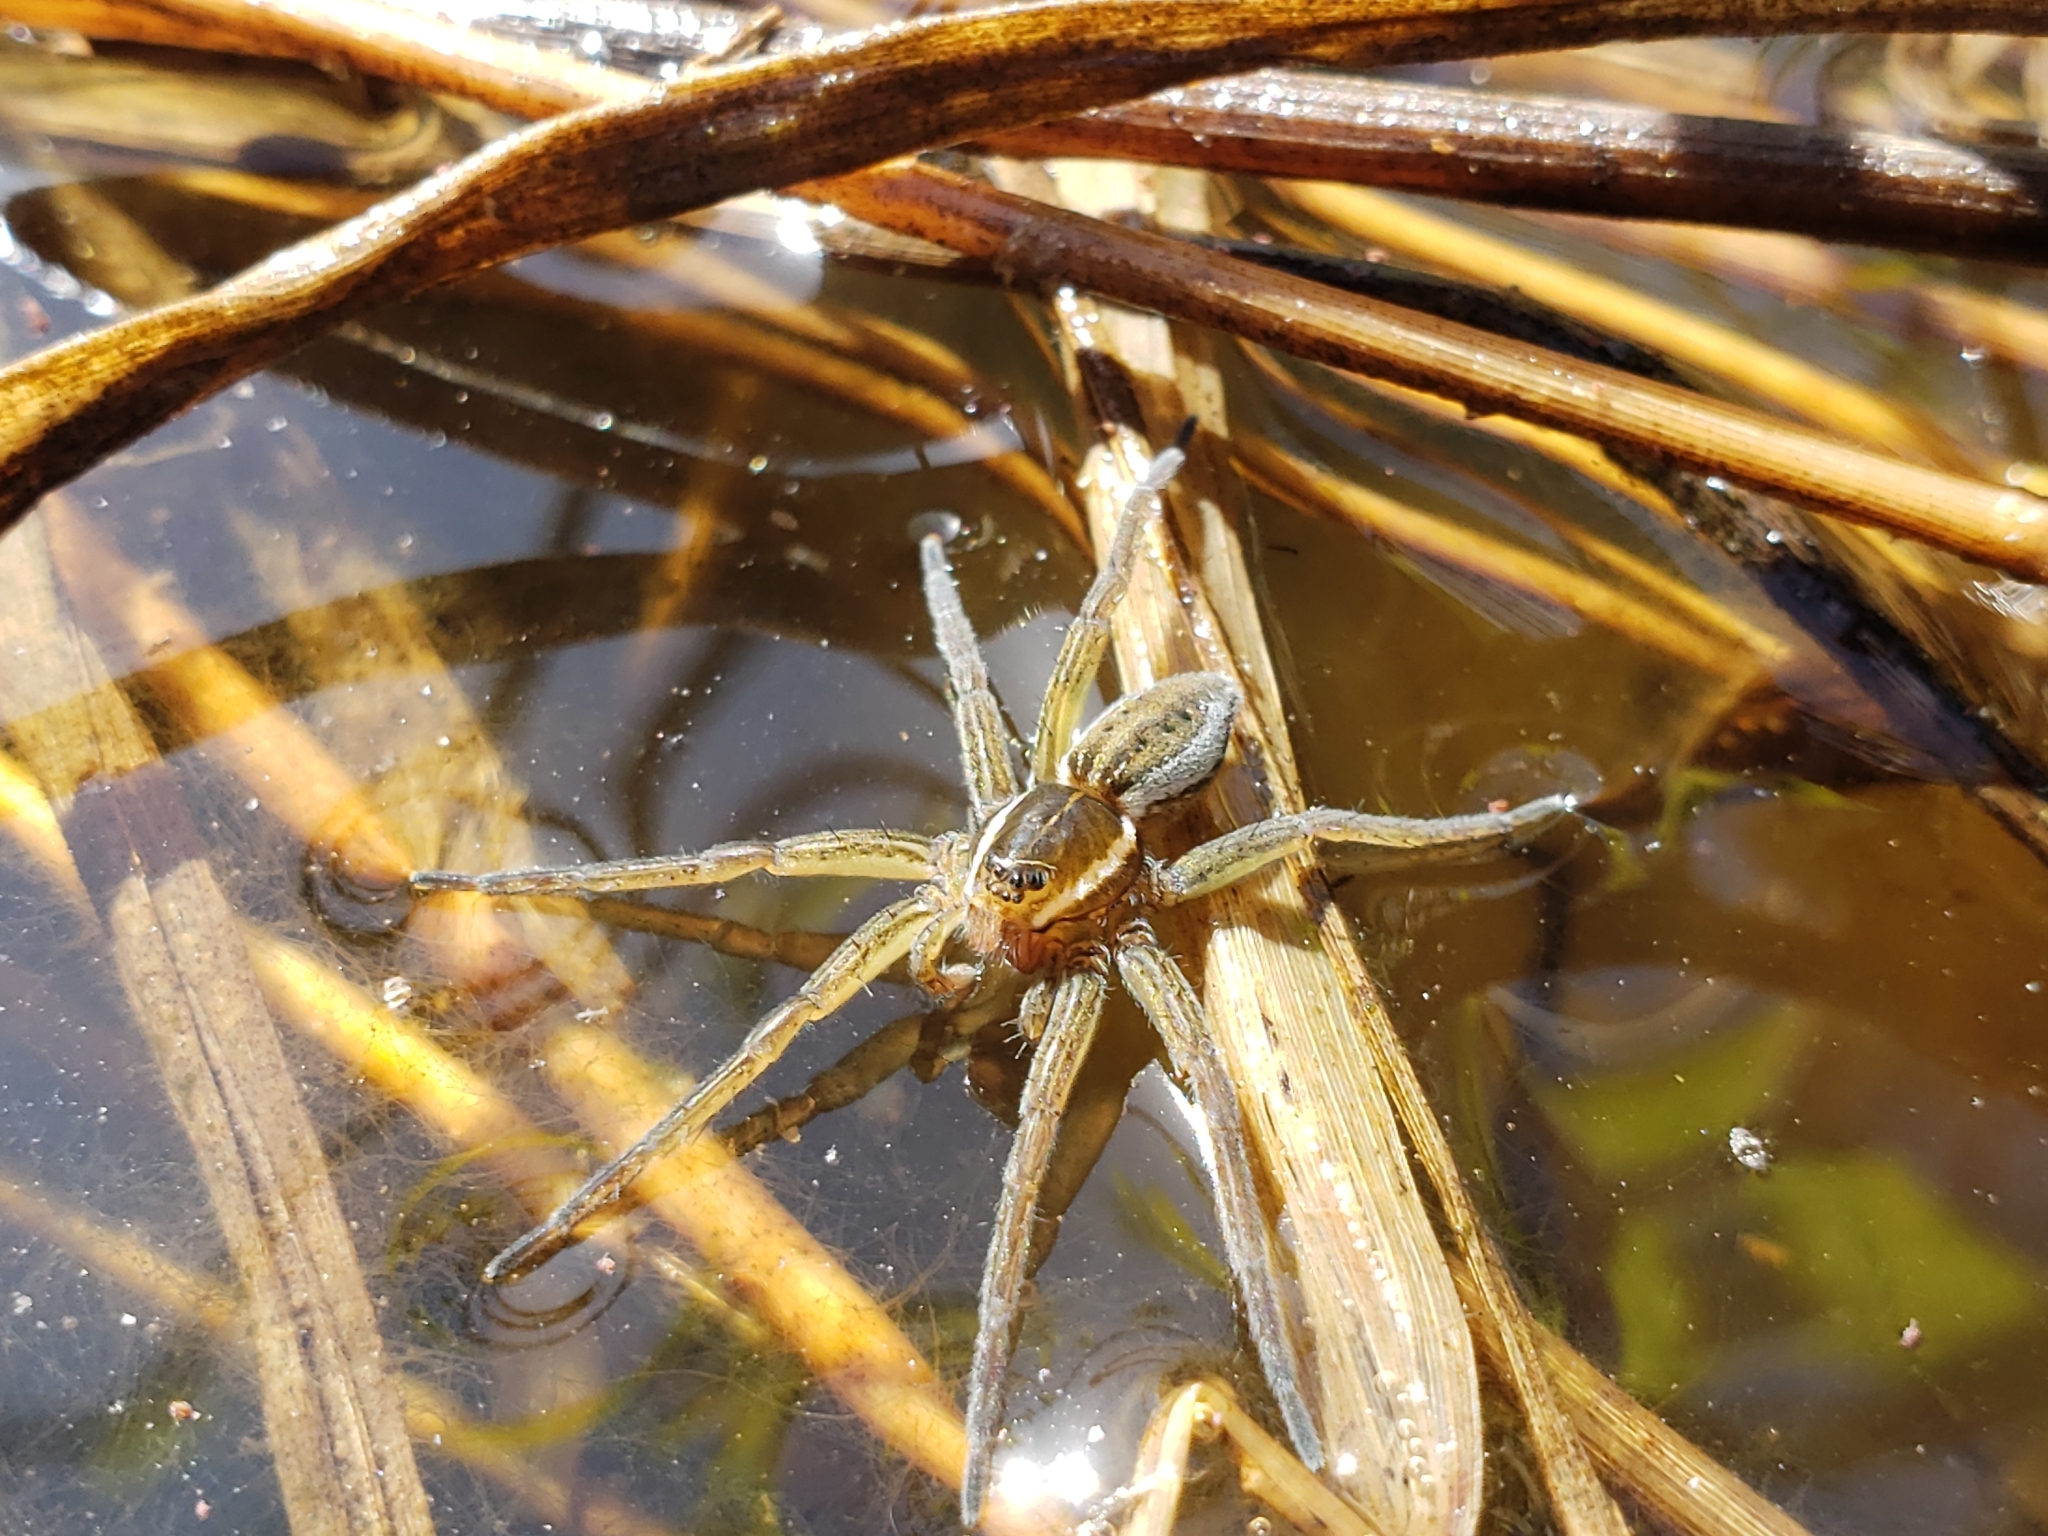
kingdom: Animalia
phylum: Arthropoda
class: Arachnida
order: Araneae
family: Pisauridae
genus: Dolomedes
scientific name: Dolomedes triton
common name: Six-spotted fishing spider
